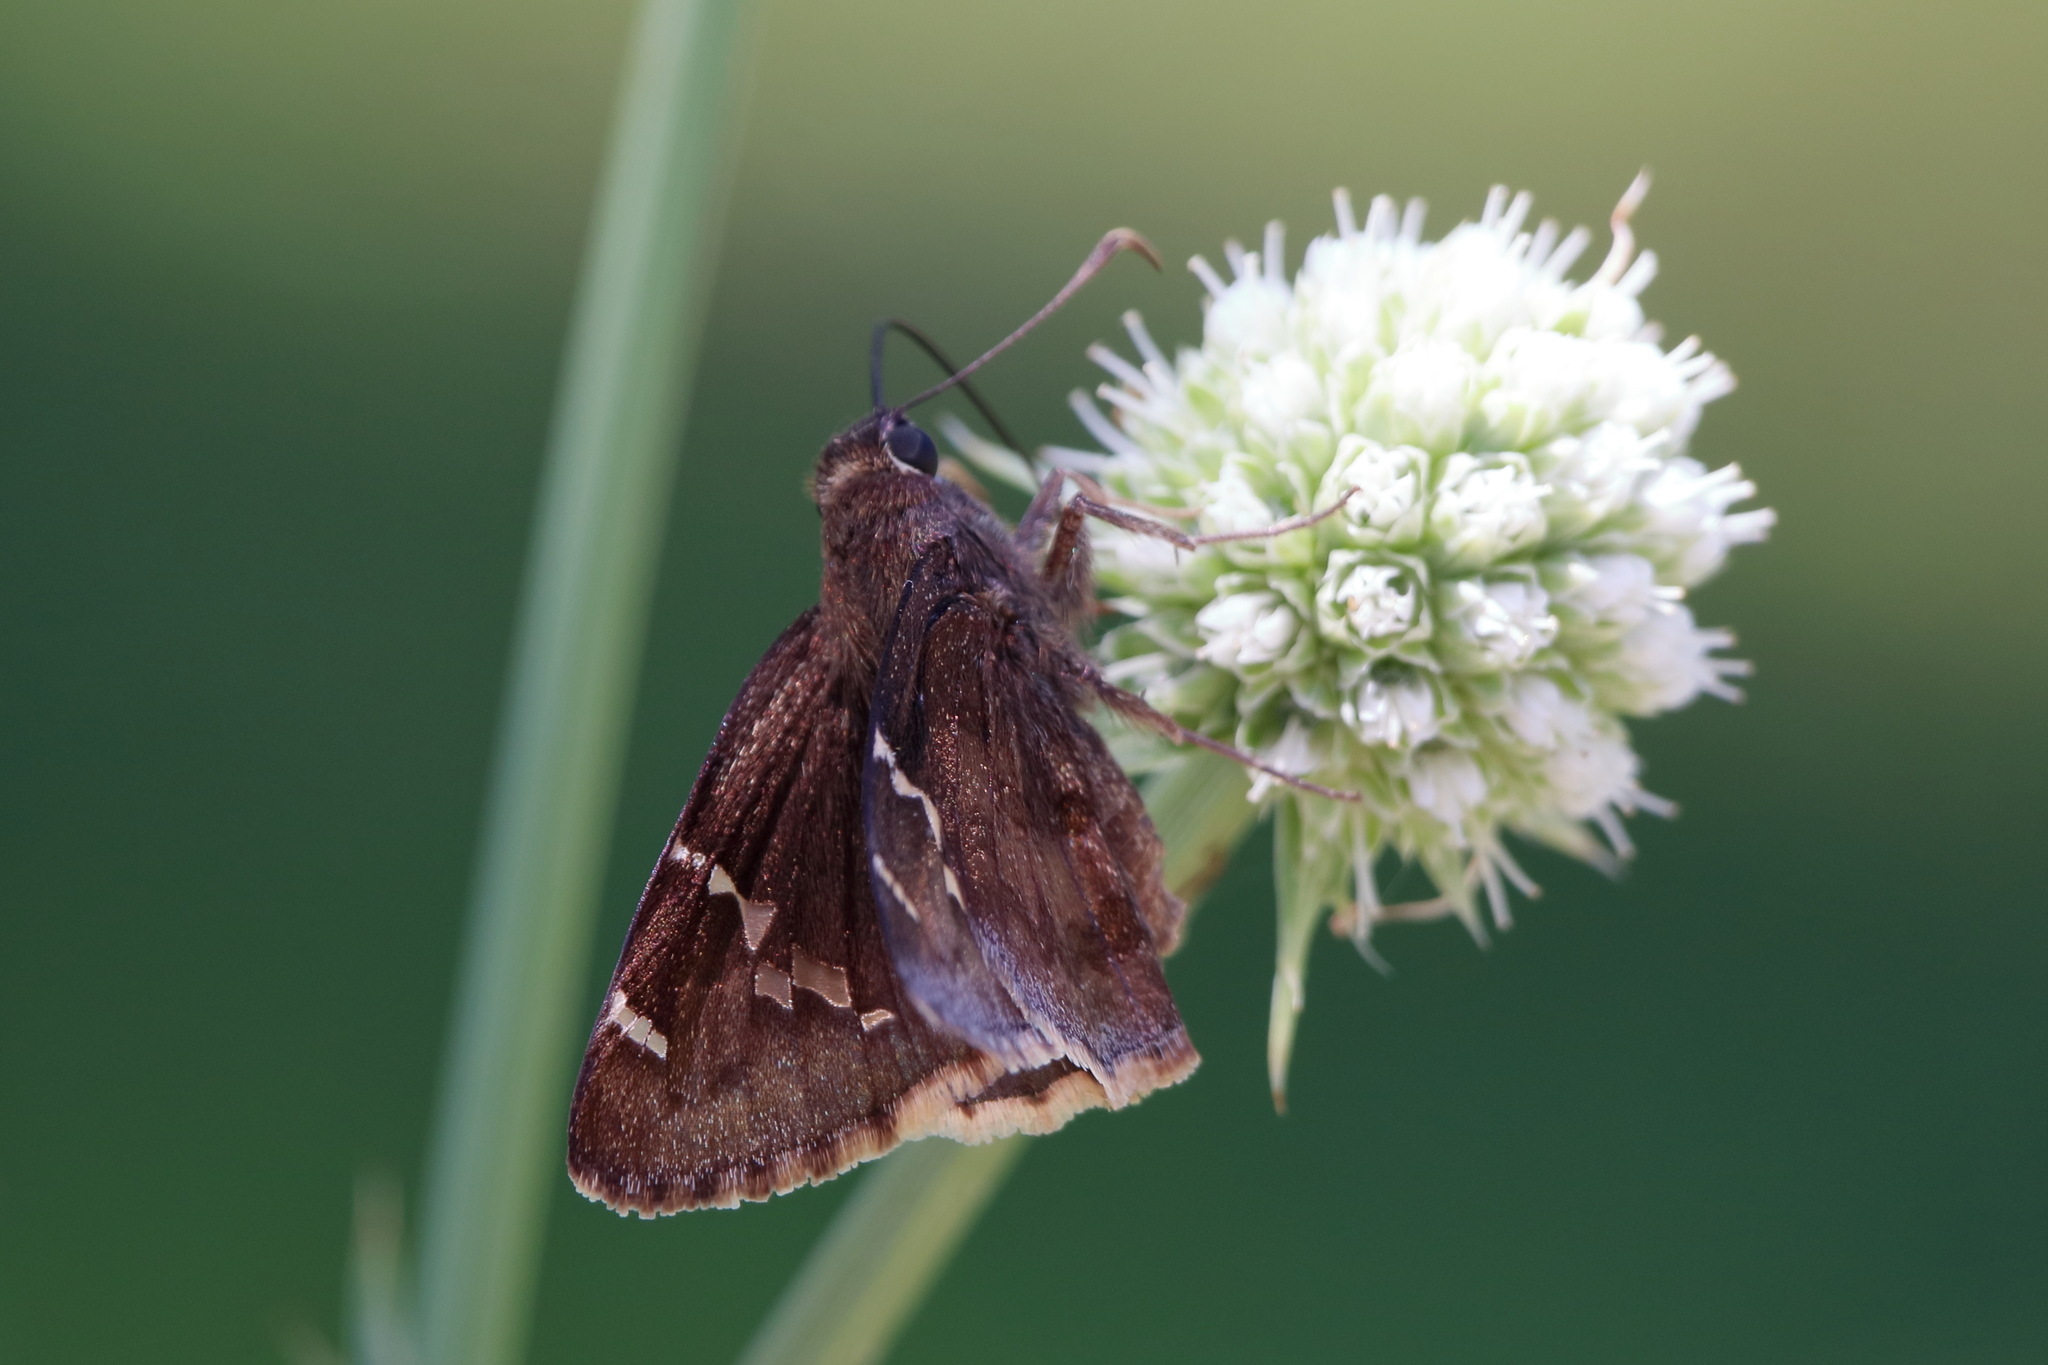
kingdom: Animalia
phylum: Arthropoda
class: Insecta
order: Lepidoptera
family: Hesperiidae
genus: Thorybes
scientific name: Thorybes daunus
